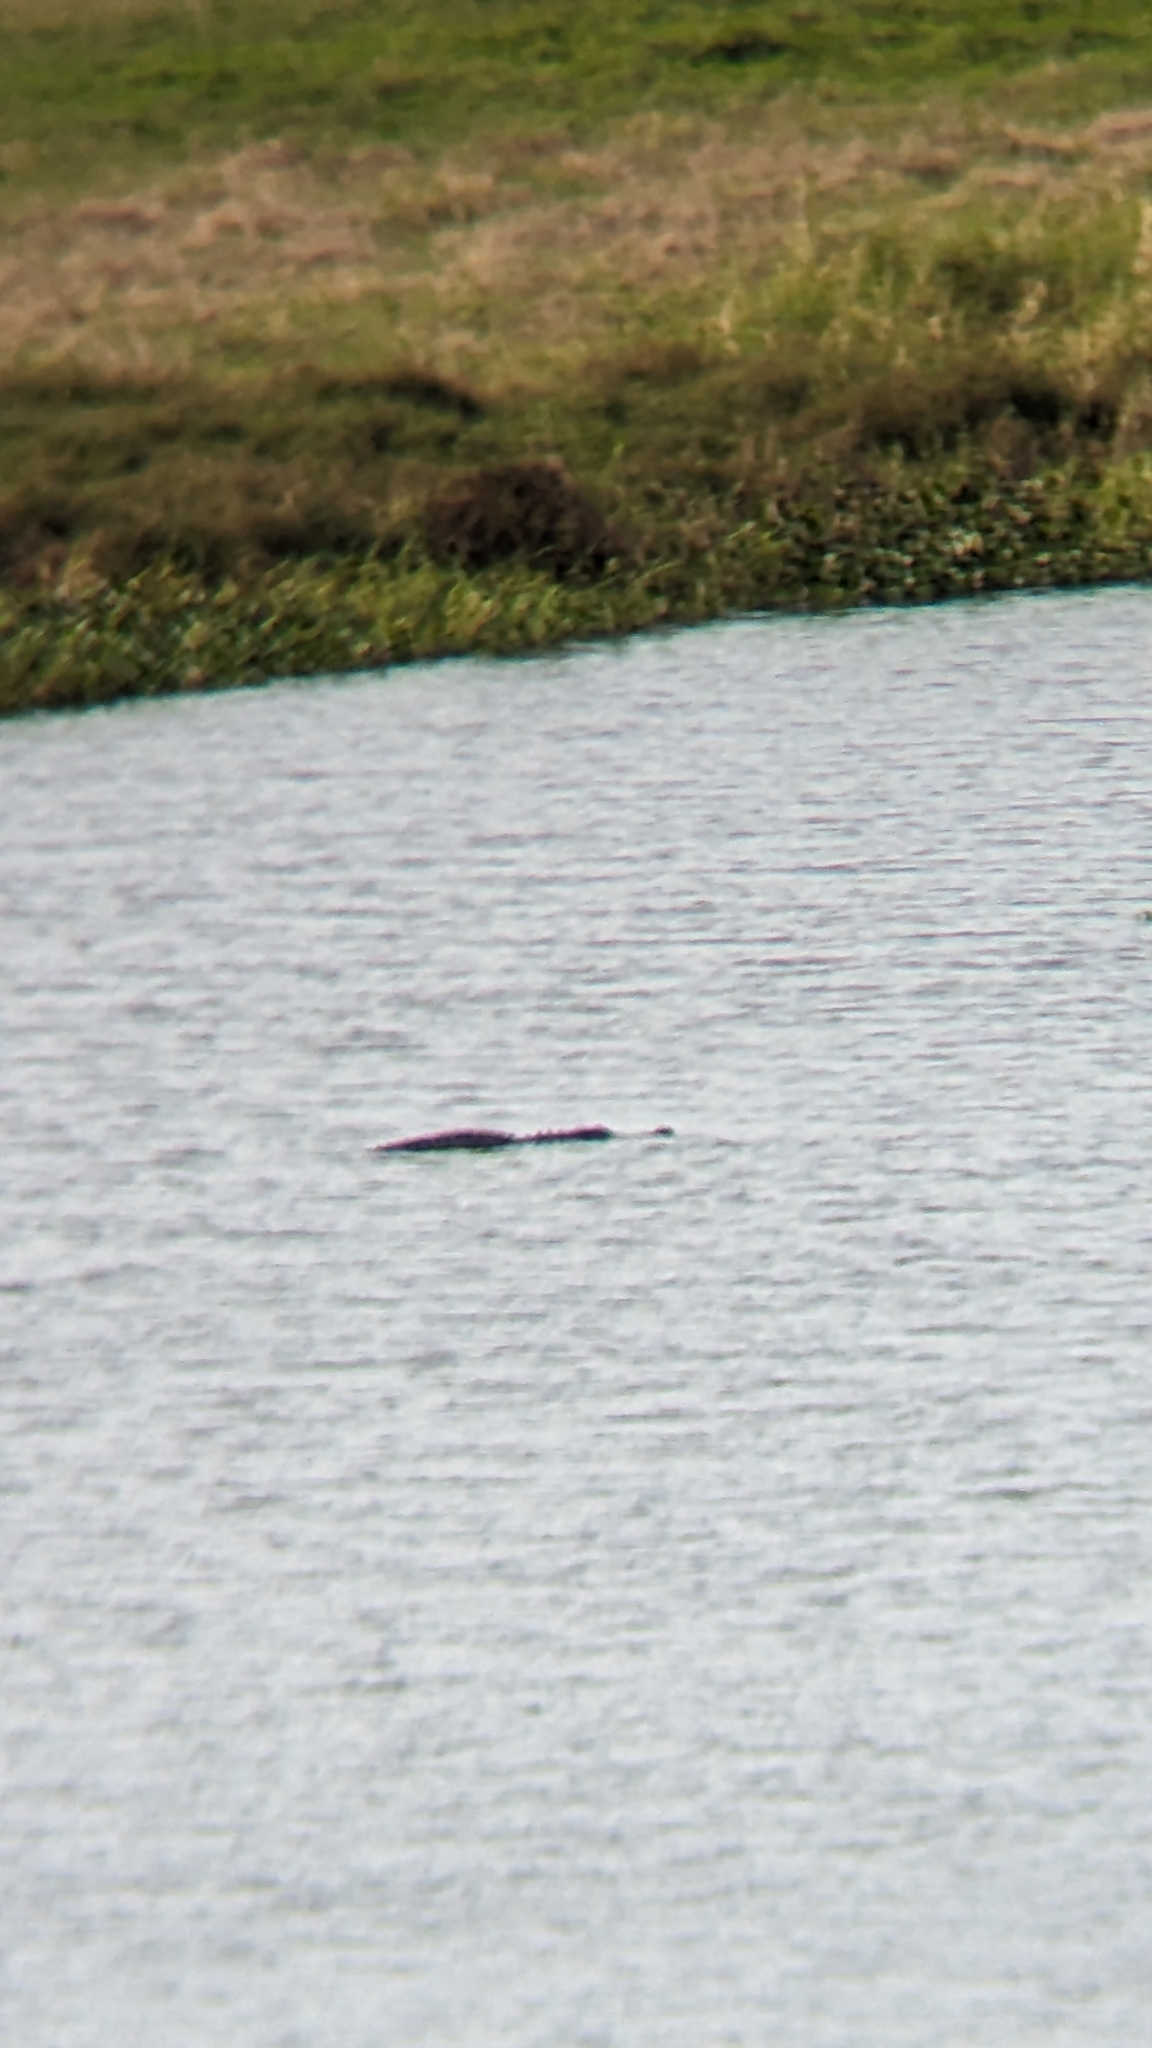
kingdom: Animalia
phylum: Chordata
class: Crocodylia
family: Alligatoridae
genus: Alligator
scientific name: Alligator mississippiensis
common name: American alligator
